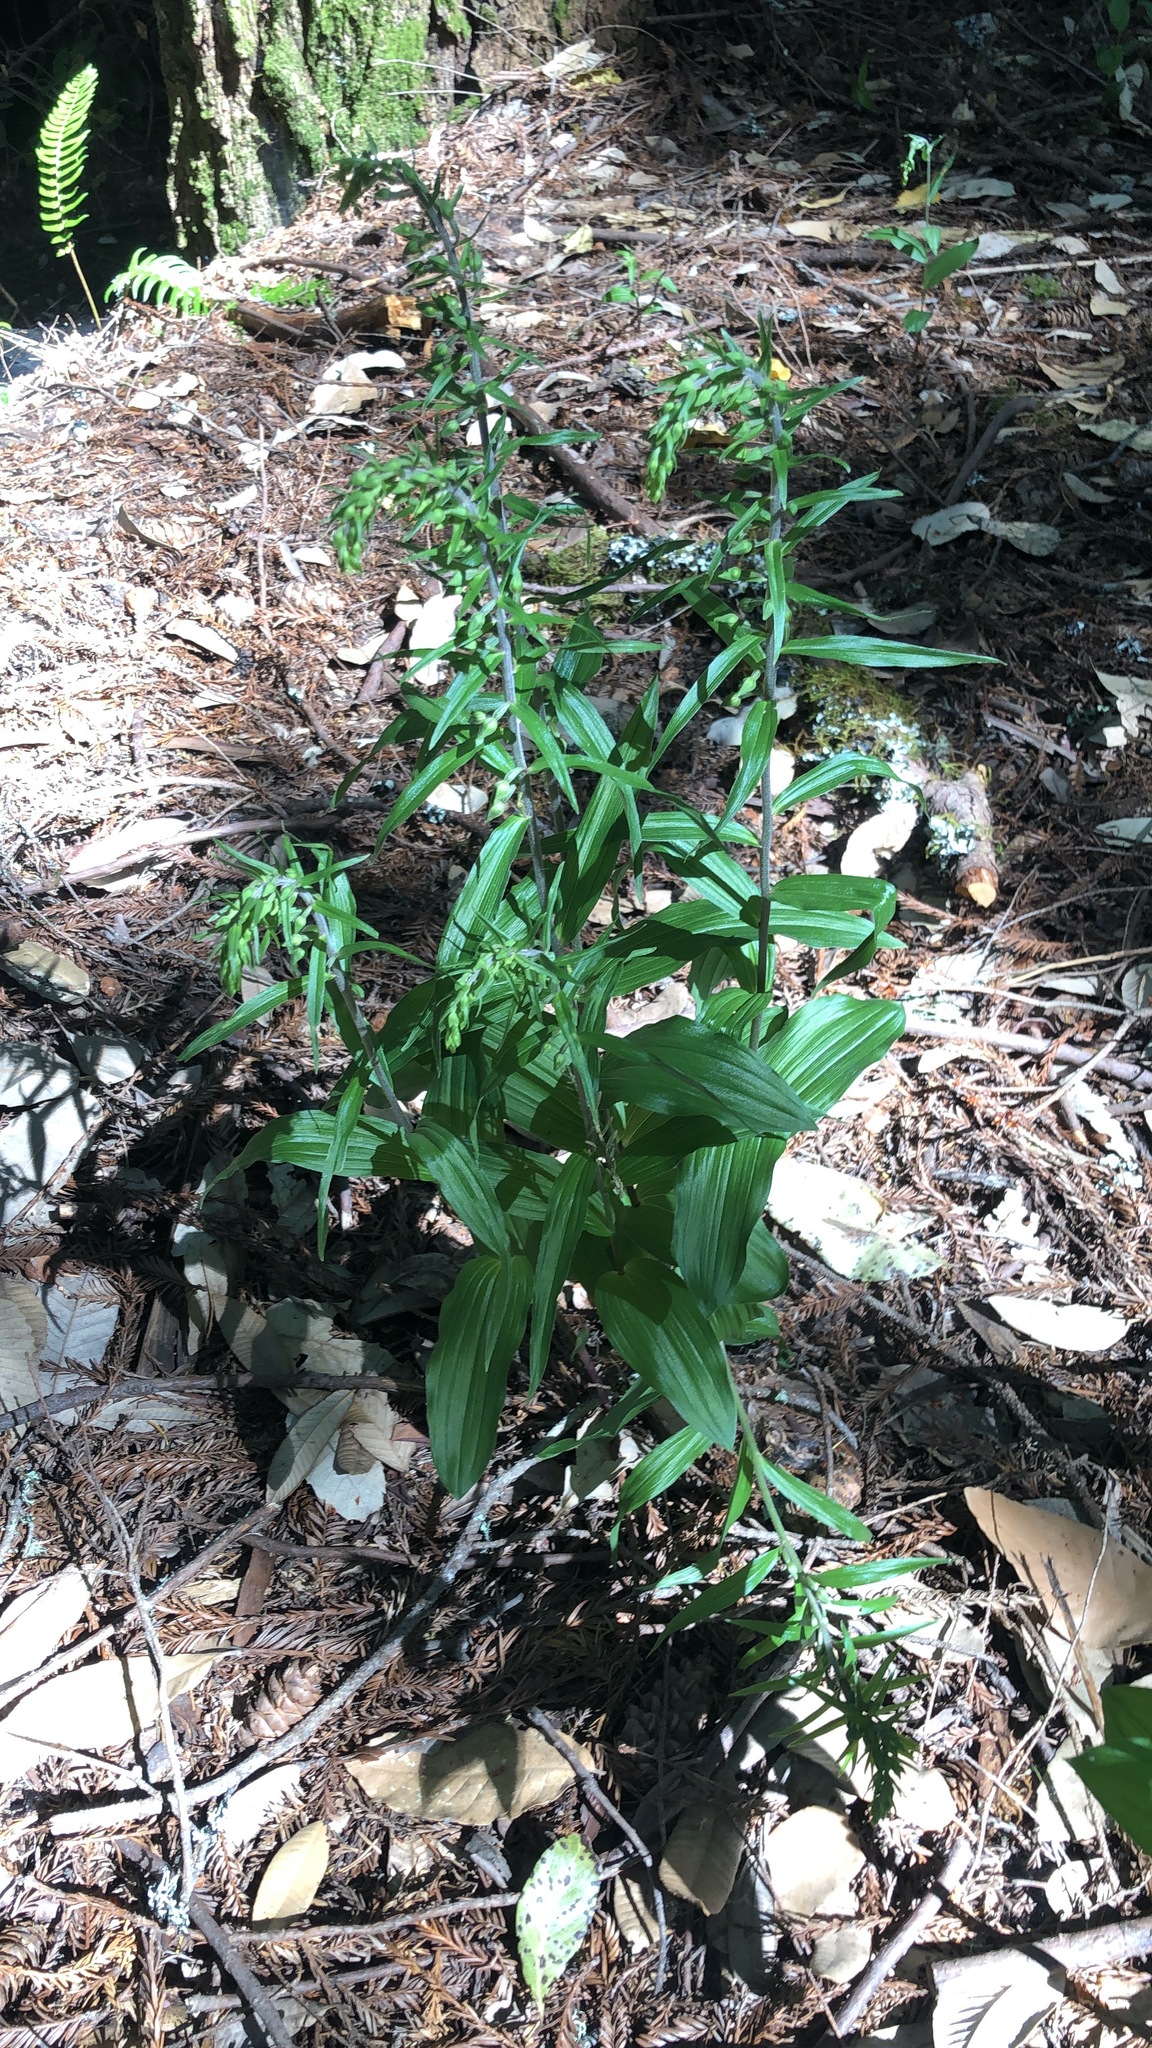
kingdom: Plantae
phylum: Tracheophyta
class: Liliopsida
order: Asparagales
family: Orchidaceae
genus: Epipactis
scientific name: Epipactis helleborine
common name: Broad-leaved helleborine
